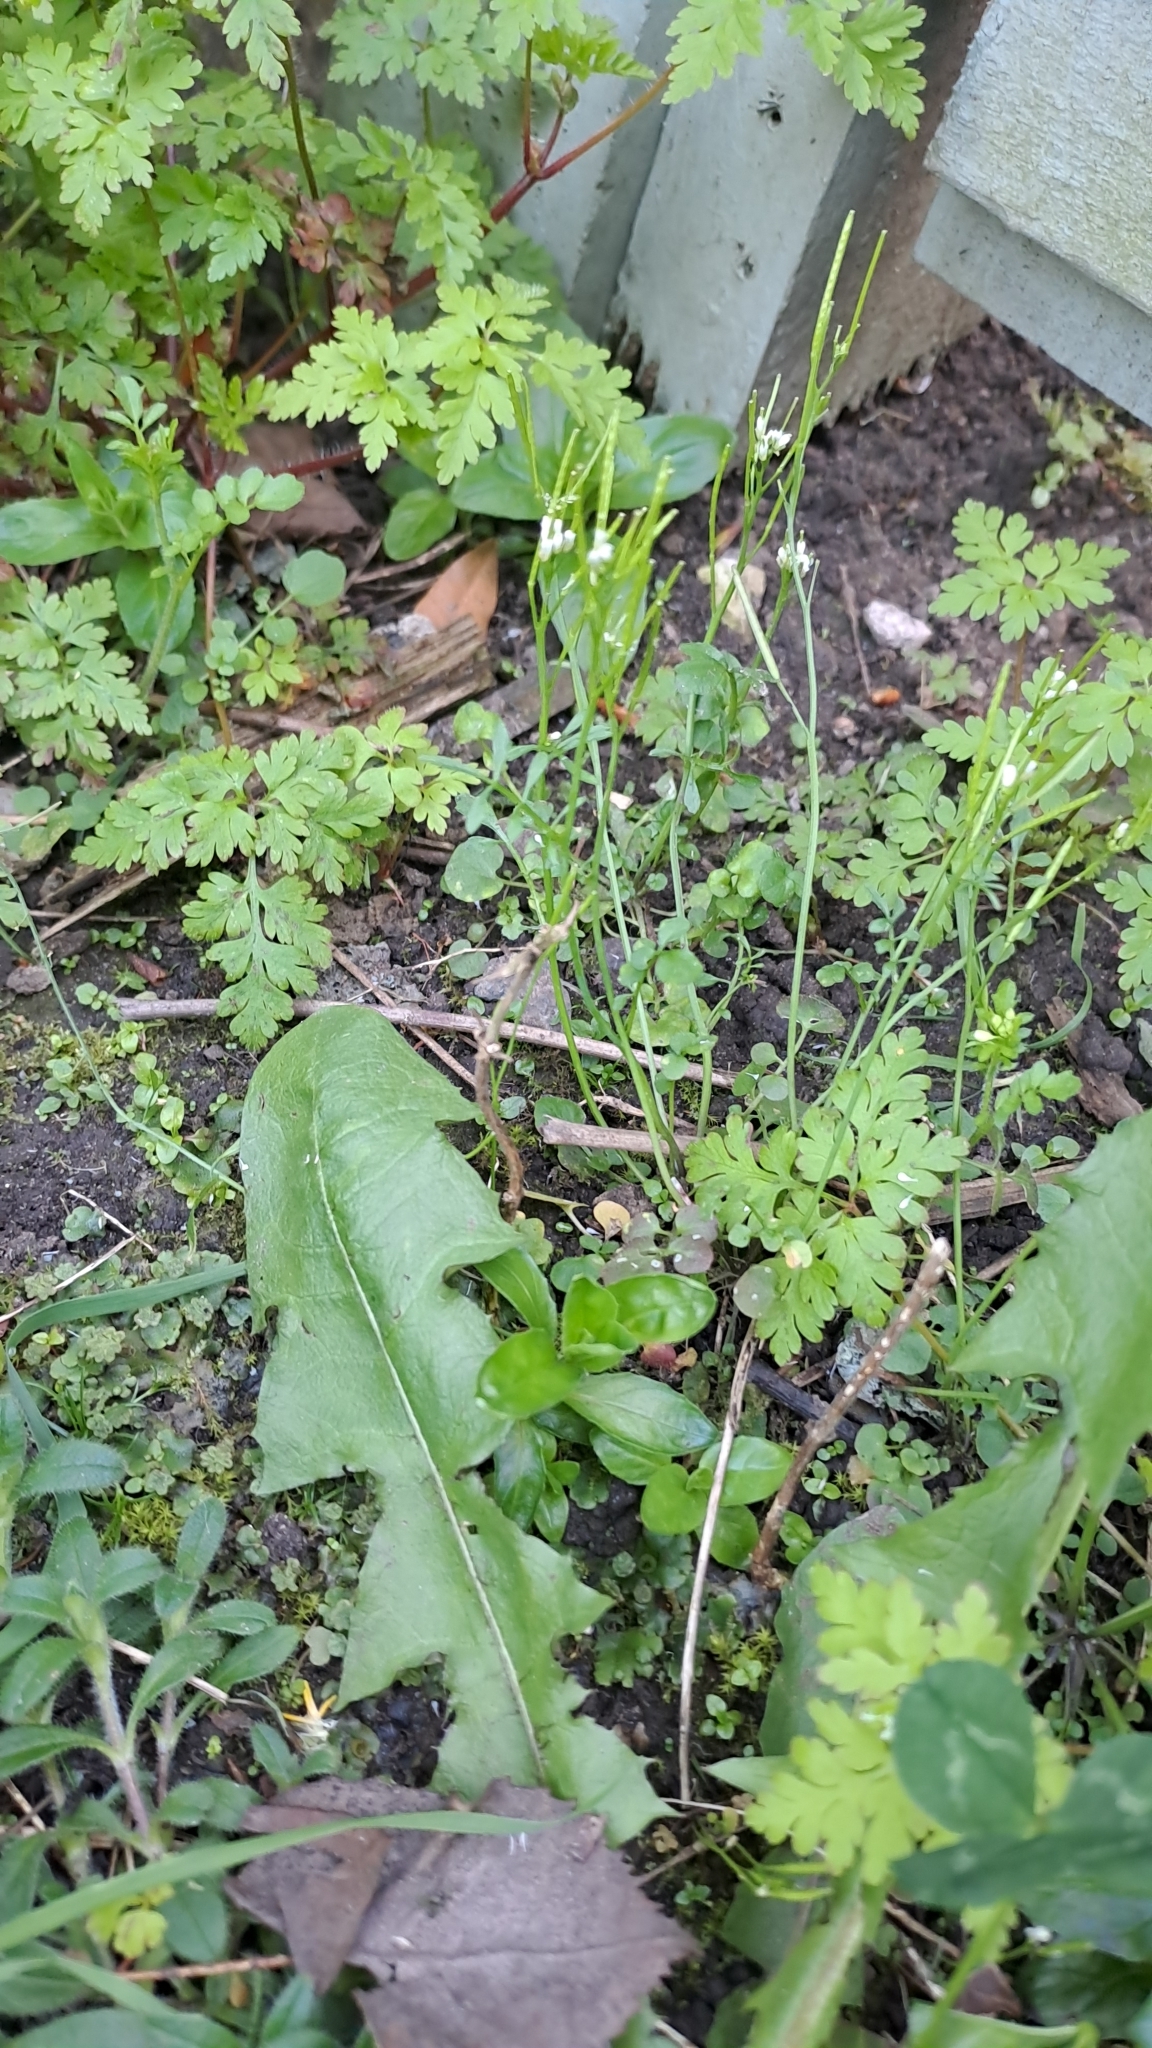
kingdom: Plantae
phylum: Tracheophyta
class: Magnoliopsida
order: Brassicales
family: Brassicaceae
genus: Arabidopsis
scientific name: Arabidopsis thaliana
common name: Thale cress
